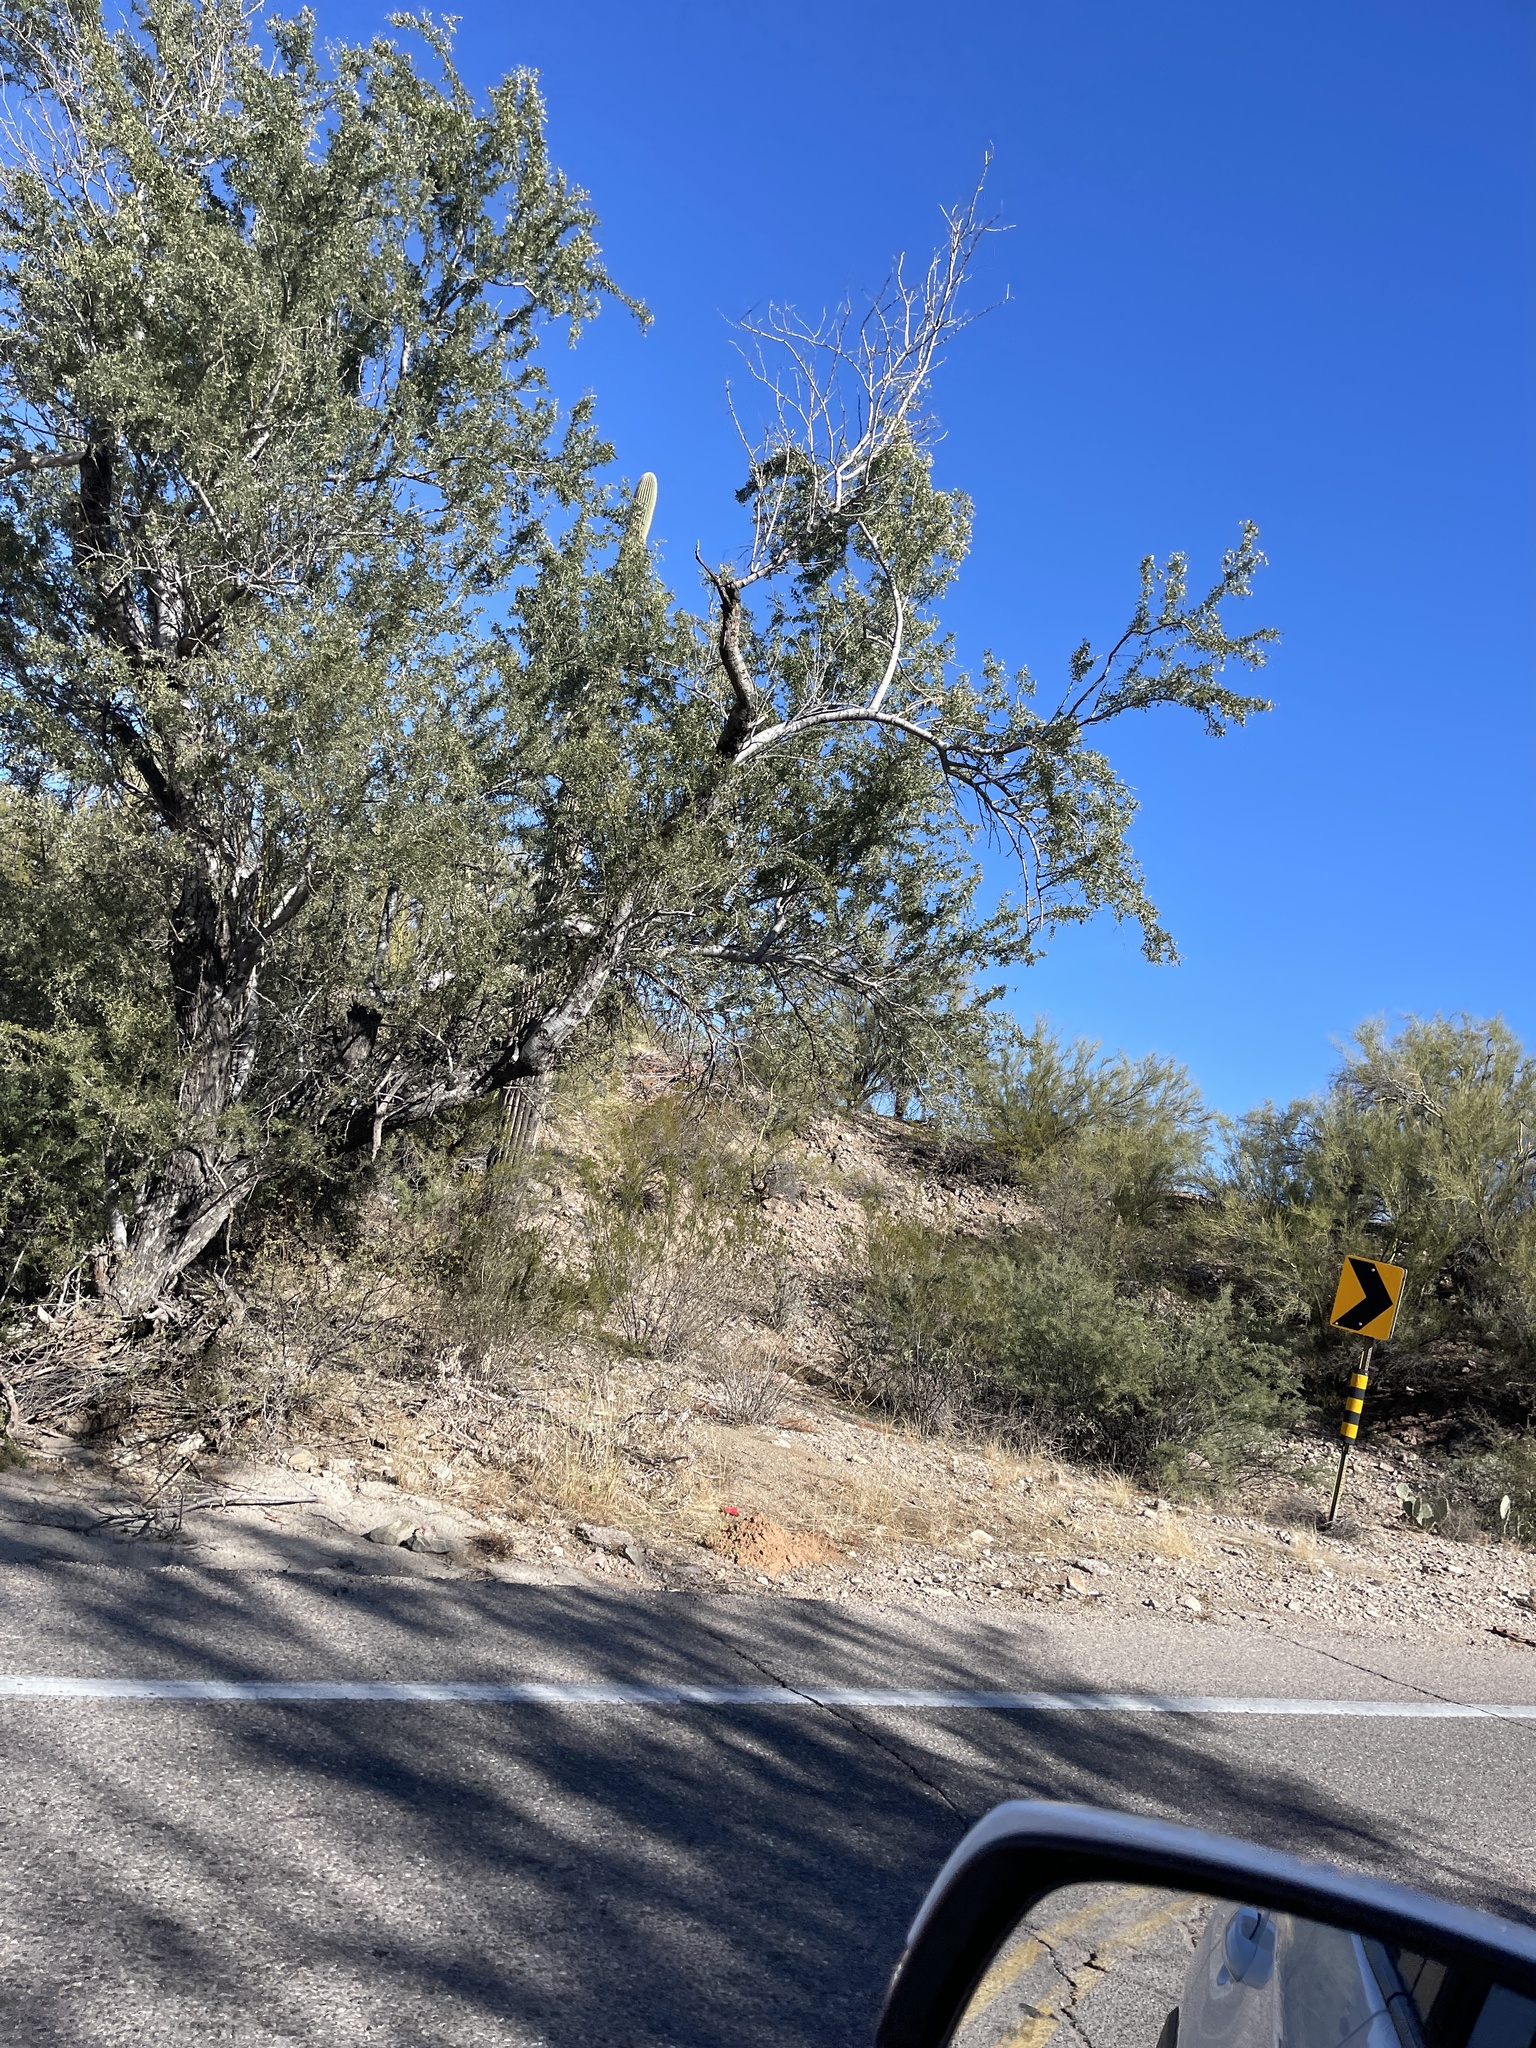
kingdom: Plantae
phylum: Tracheophyta
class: Magnoliopsida
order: Fabales
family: Fabaceae
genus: Olneya
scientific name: Olneya tesota
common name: Desert ironwood
